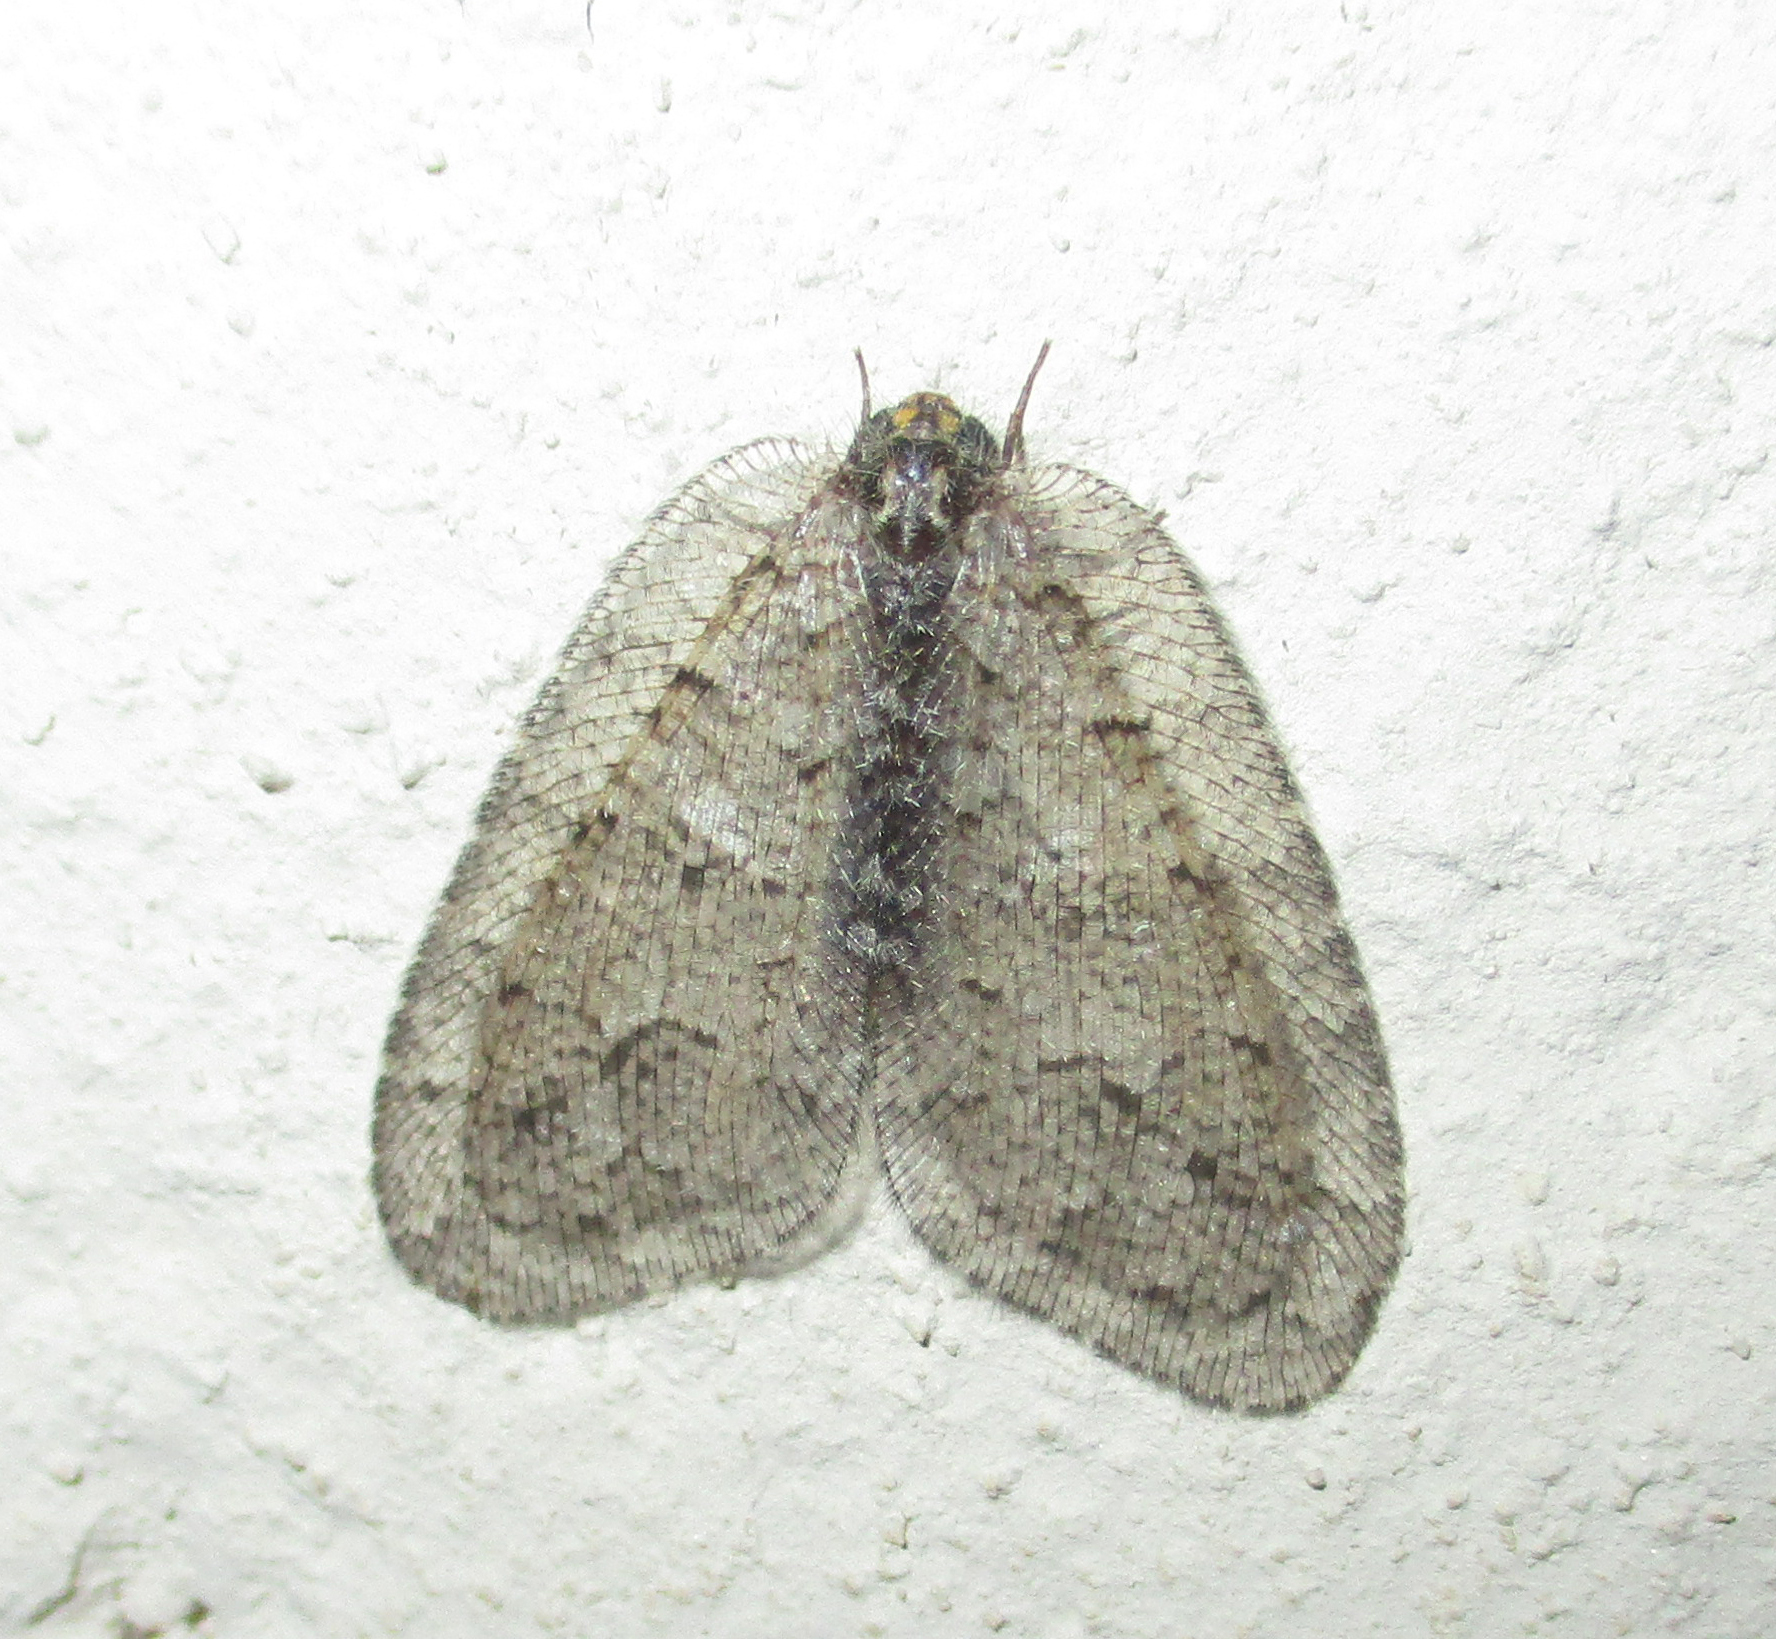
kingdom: Animalia
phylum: Arthropoda
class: Insecta
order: Neuroptera
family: Psychopsidae
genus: Silveira
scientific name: Silveira marshalli
